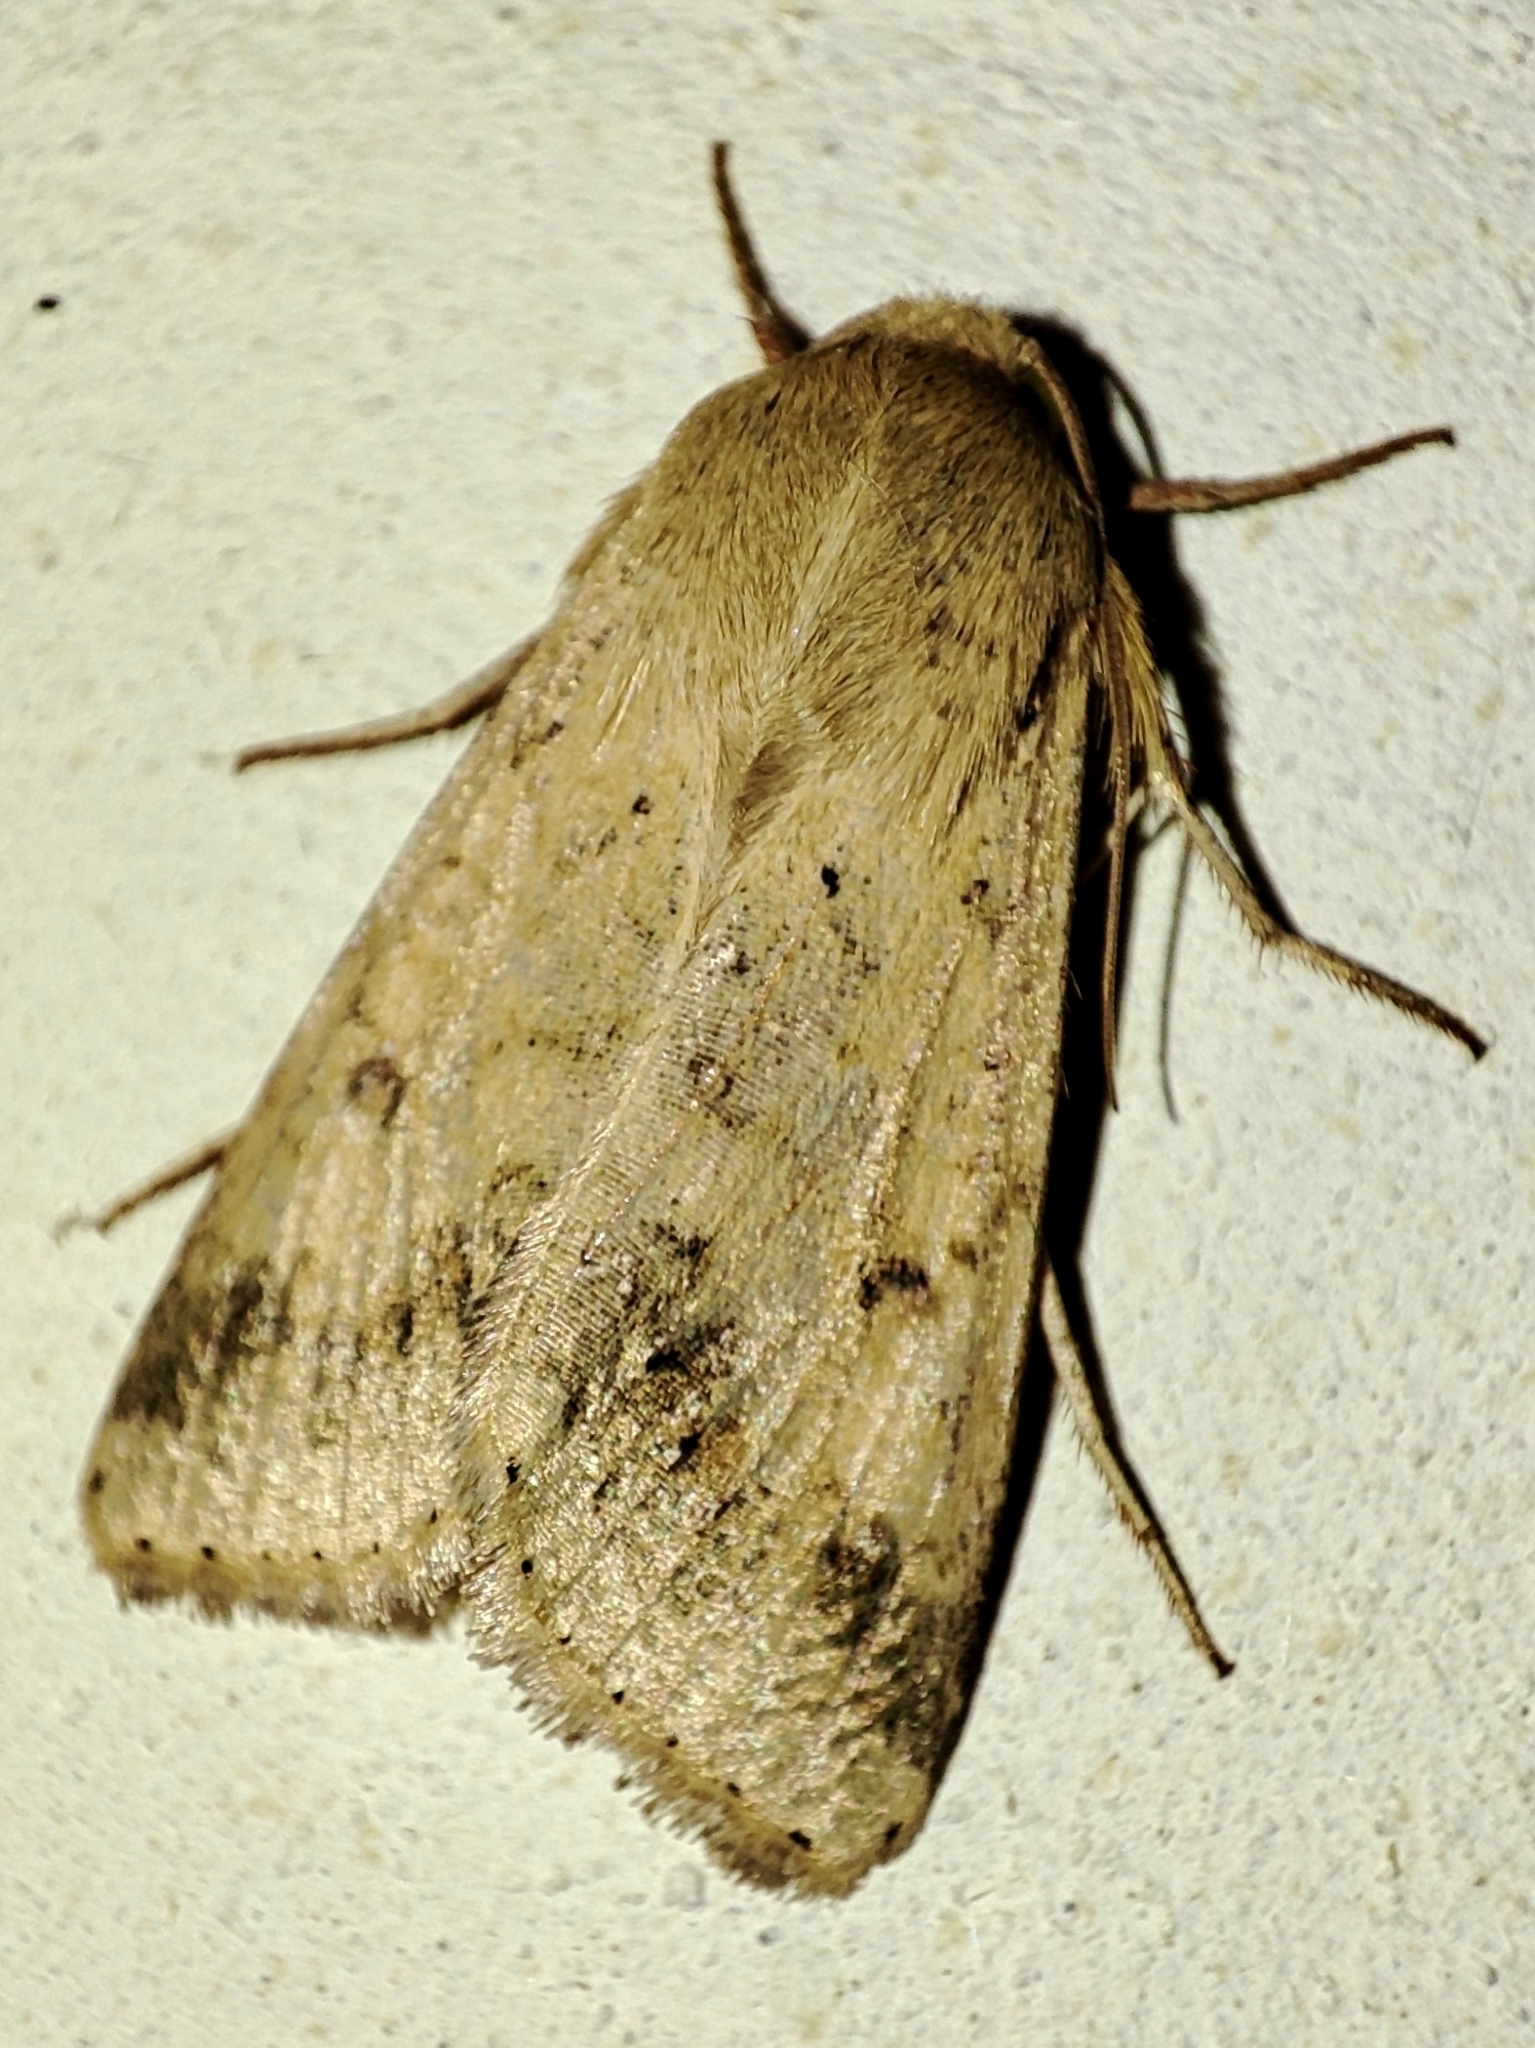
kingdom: Animalia
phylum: Arthropoda
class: Insecta
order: Lepidoptera
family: Noctuidae
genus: Helicoverpa
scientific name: Helicoverpa armigera
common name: Cotton bollworm
